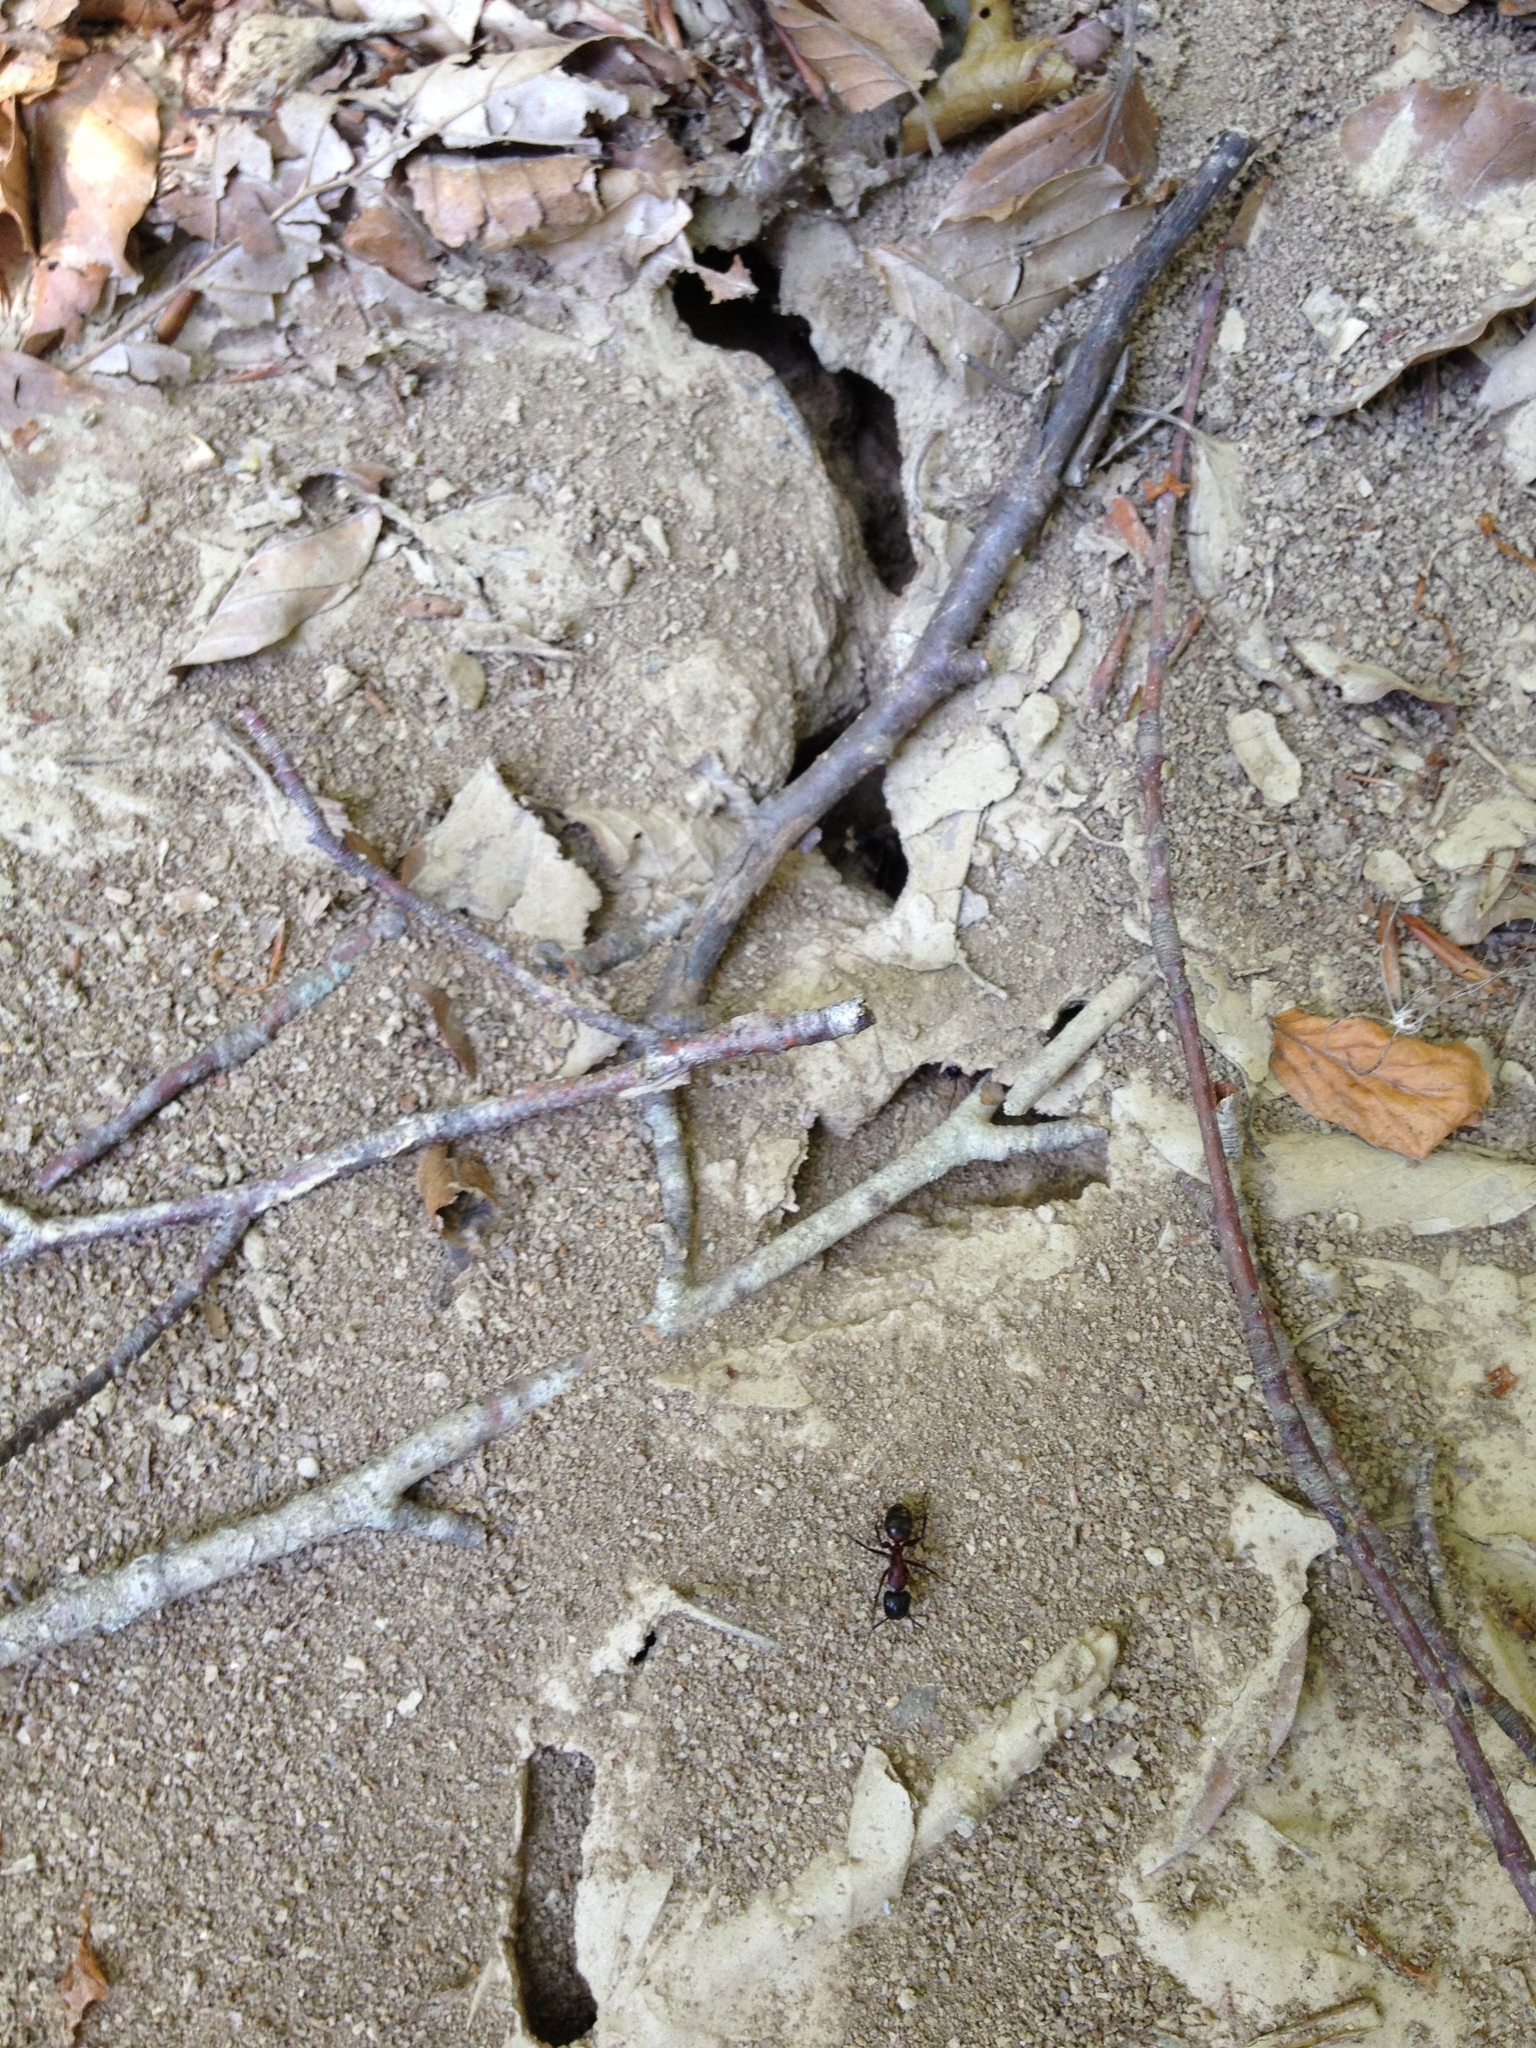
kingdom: Animalia
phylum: Arthropoda
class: Insecta
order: Hymenoptera
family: Formicidae
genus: Camponotus
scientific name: Camponotus ligniperdus
